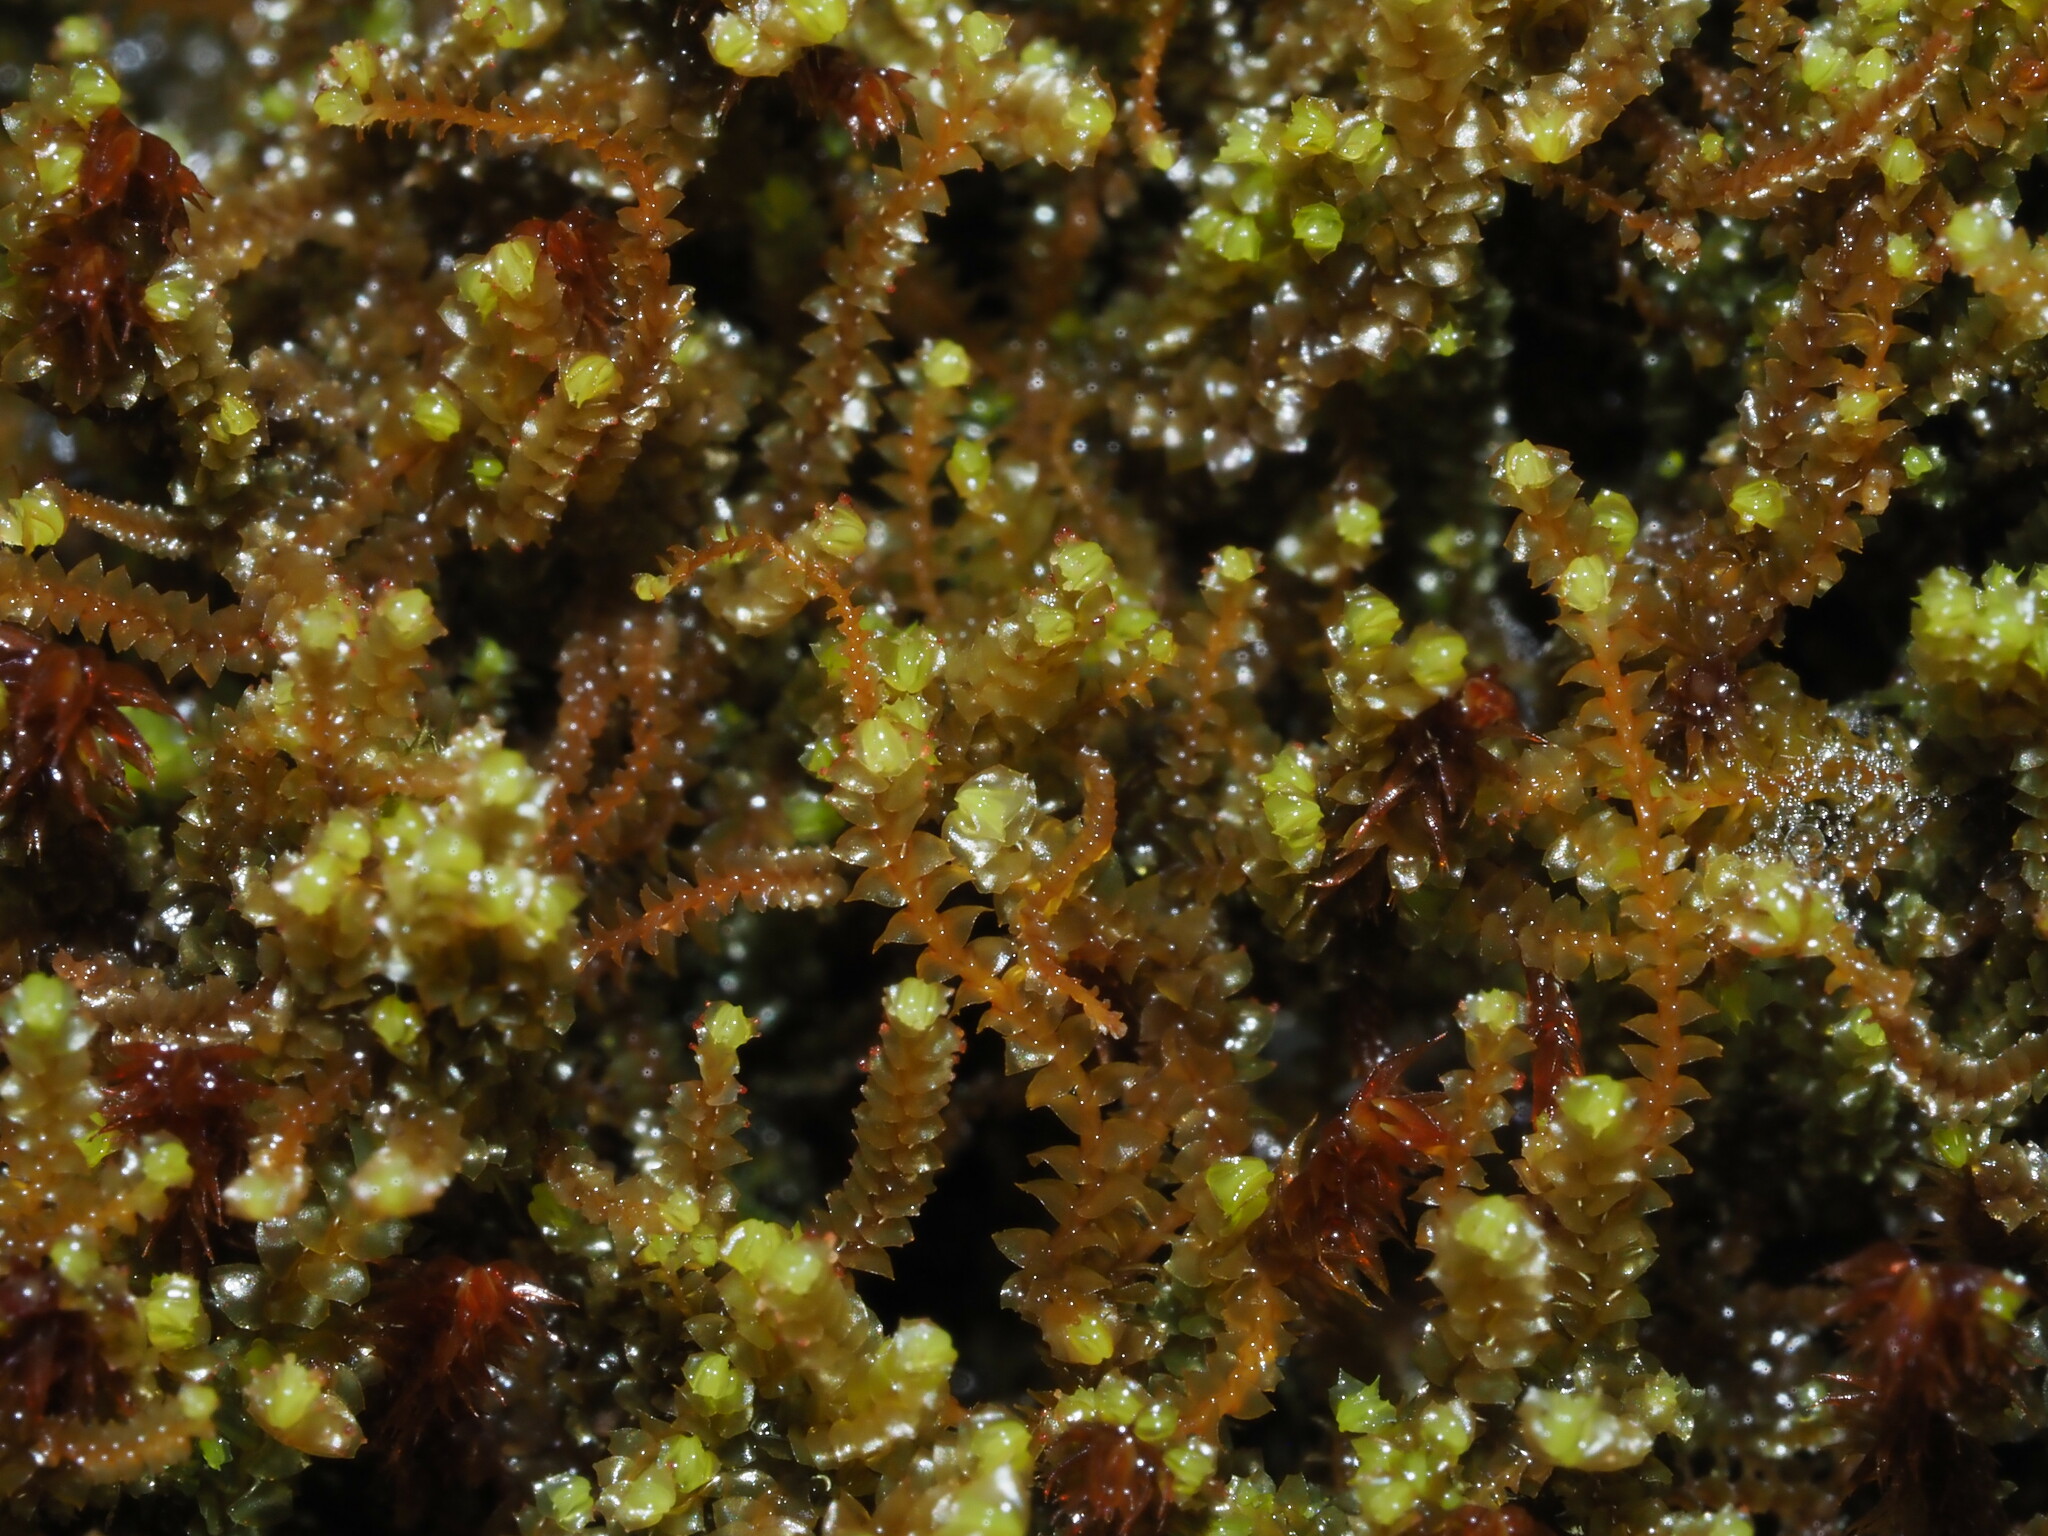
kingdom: Plantae
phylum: Marchantiophyta
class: Jungermanniopsida
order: Jungermanniales
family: Anastrophyllaceae
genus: Anastrepta
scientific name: Anastrepta orcadensis
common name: Orkney notchwort
